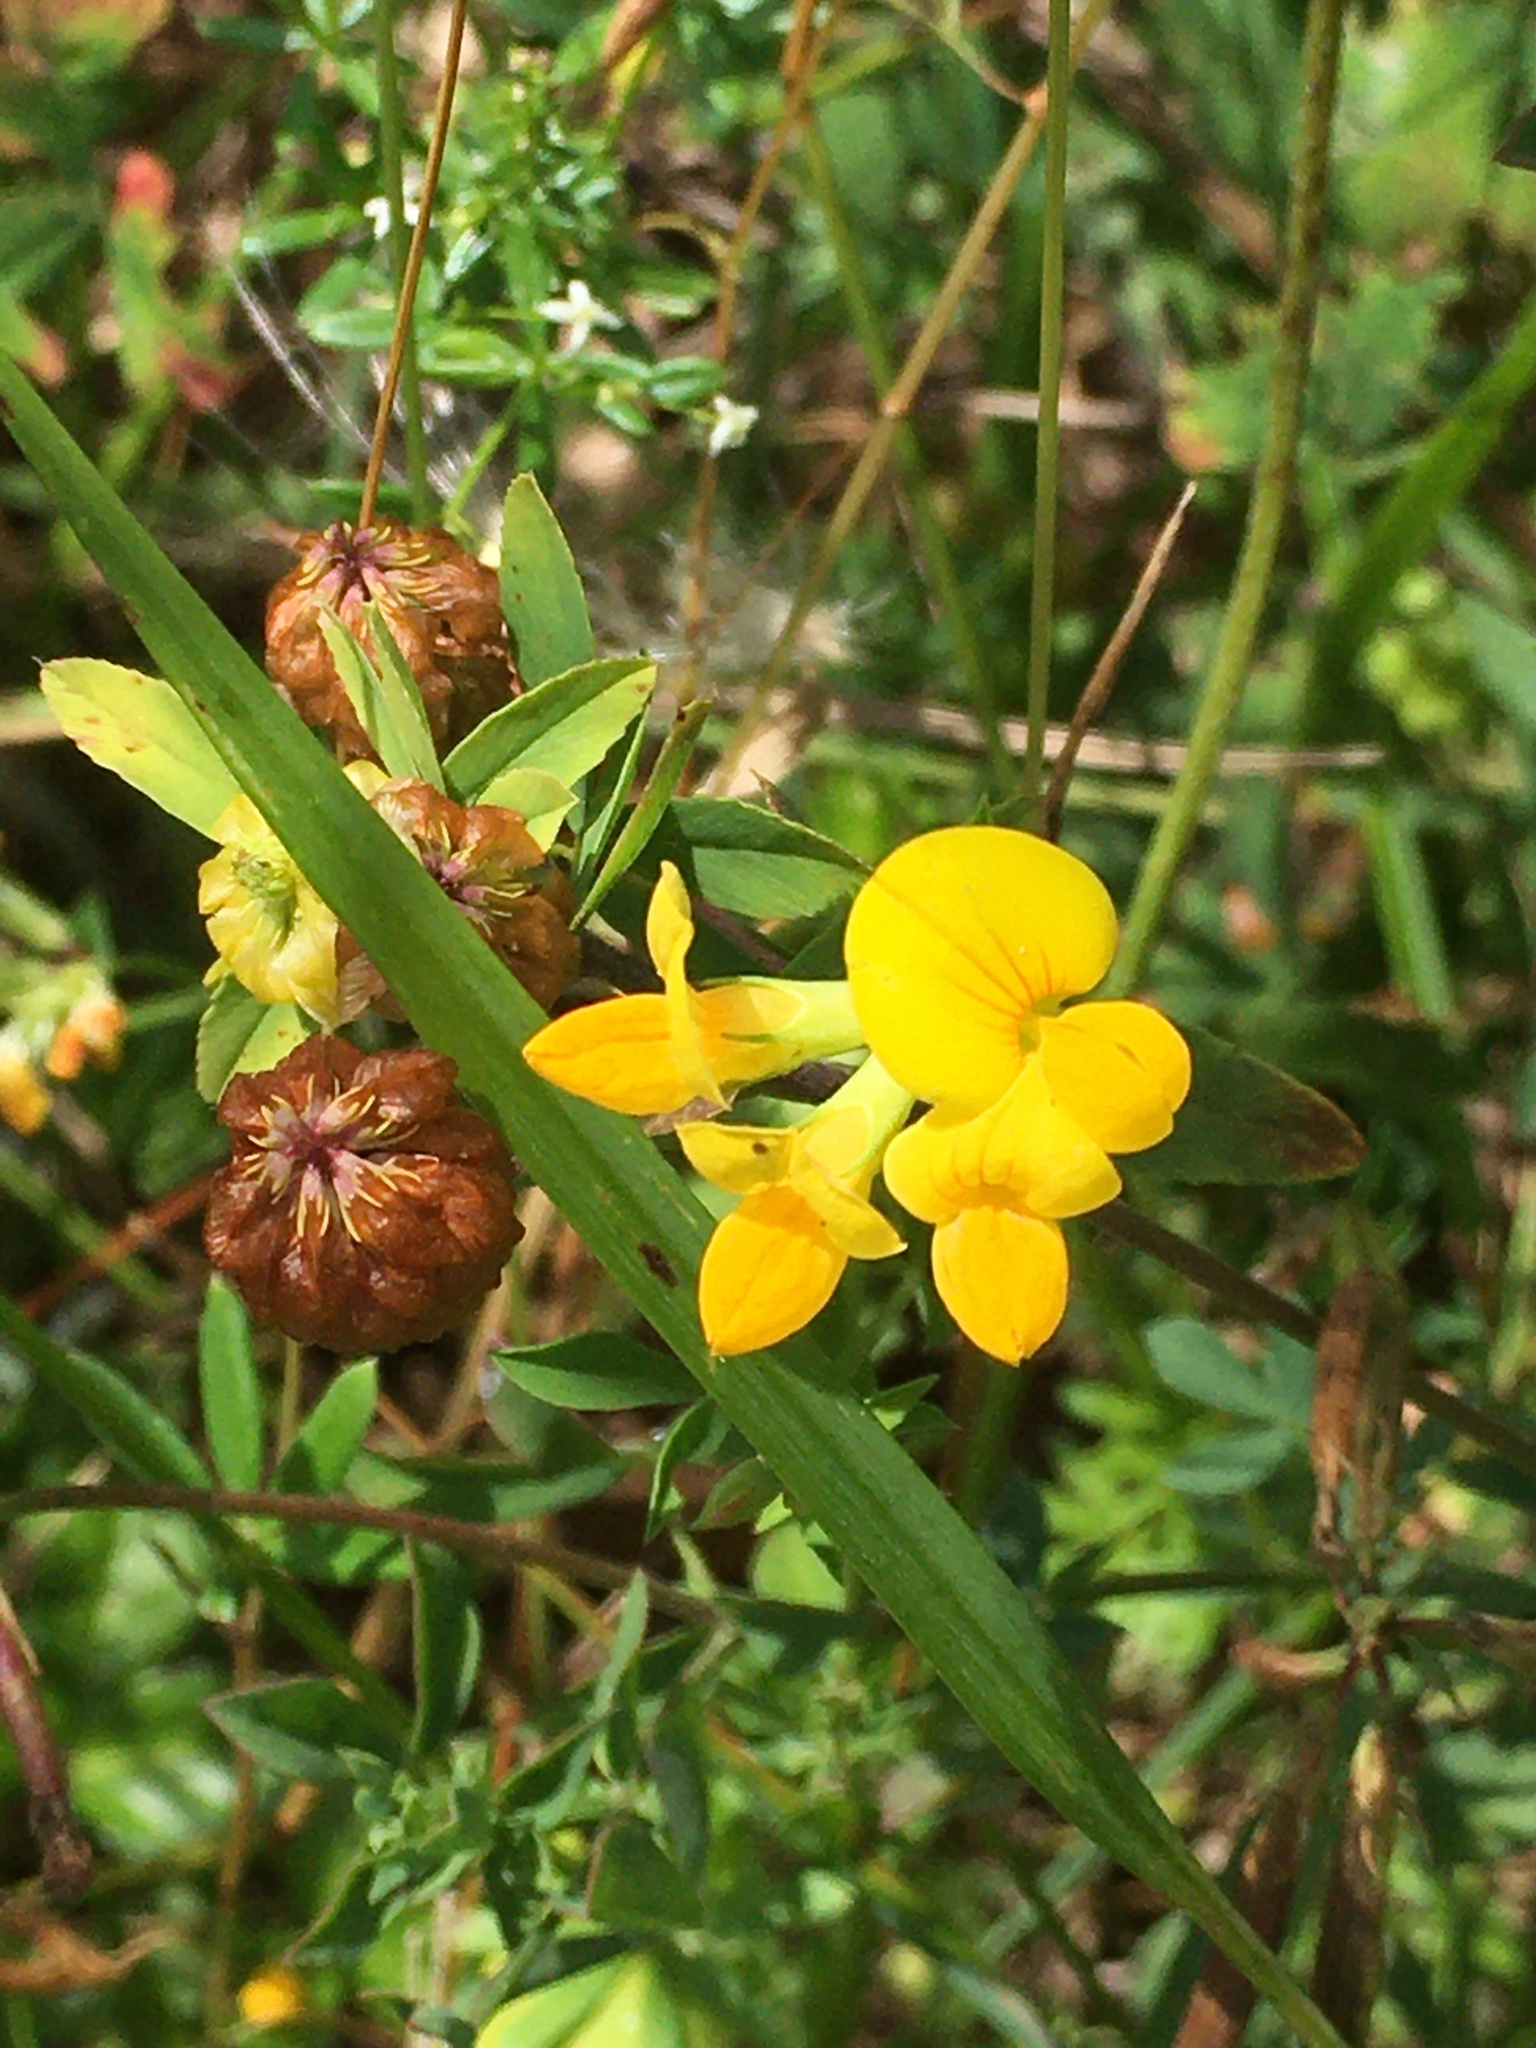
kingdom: Plantae
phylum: Tracheophyta
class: Magnoliopsida
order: Fabales
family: Fabaceae
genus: Lotus
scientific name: Lotus corniculatus
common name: Common bird's-foot-trefoil
